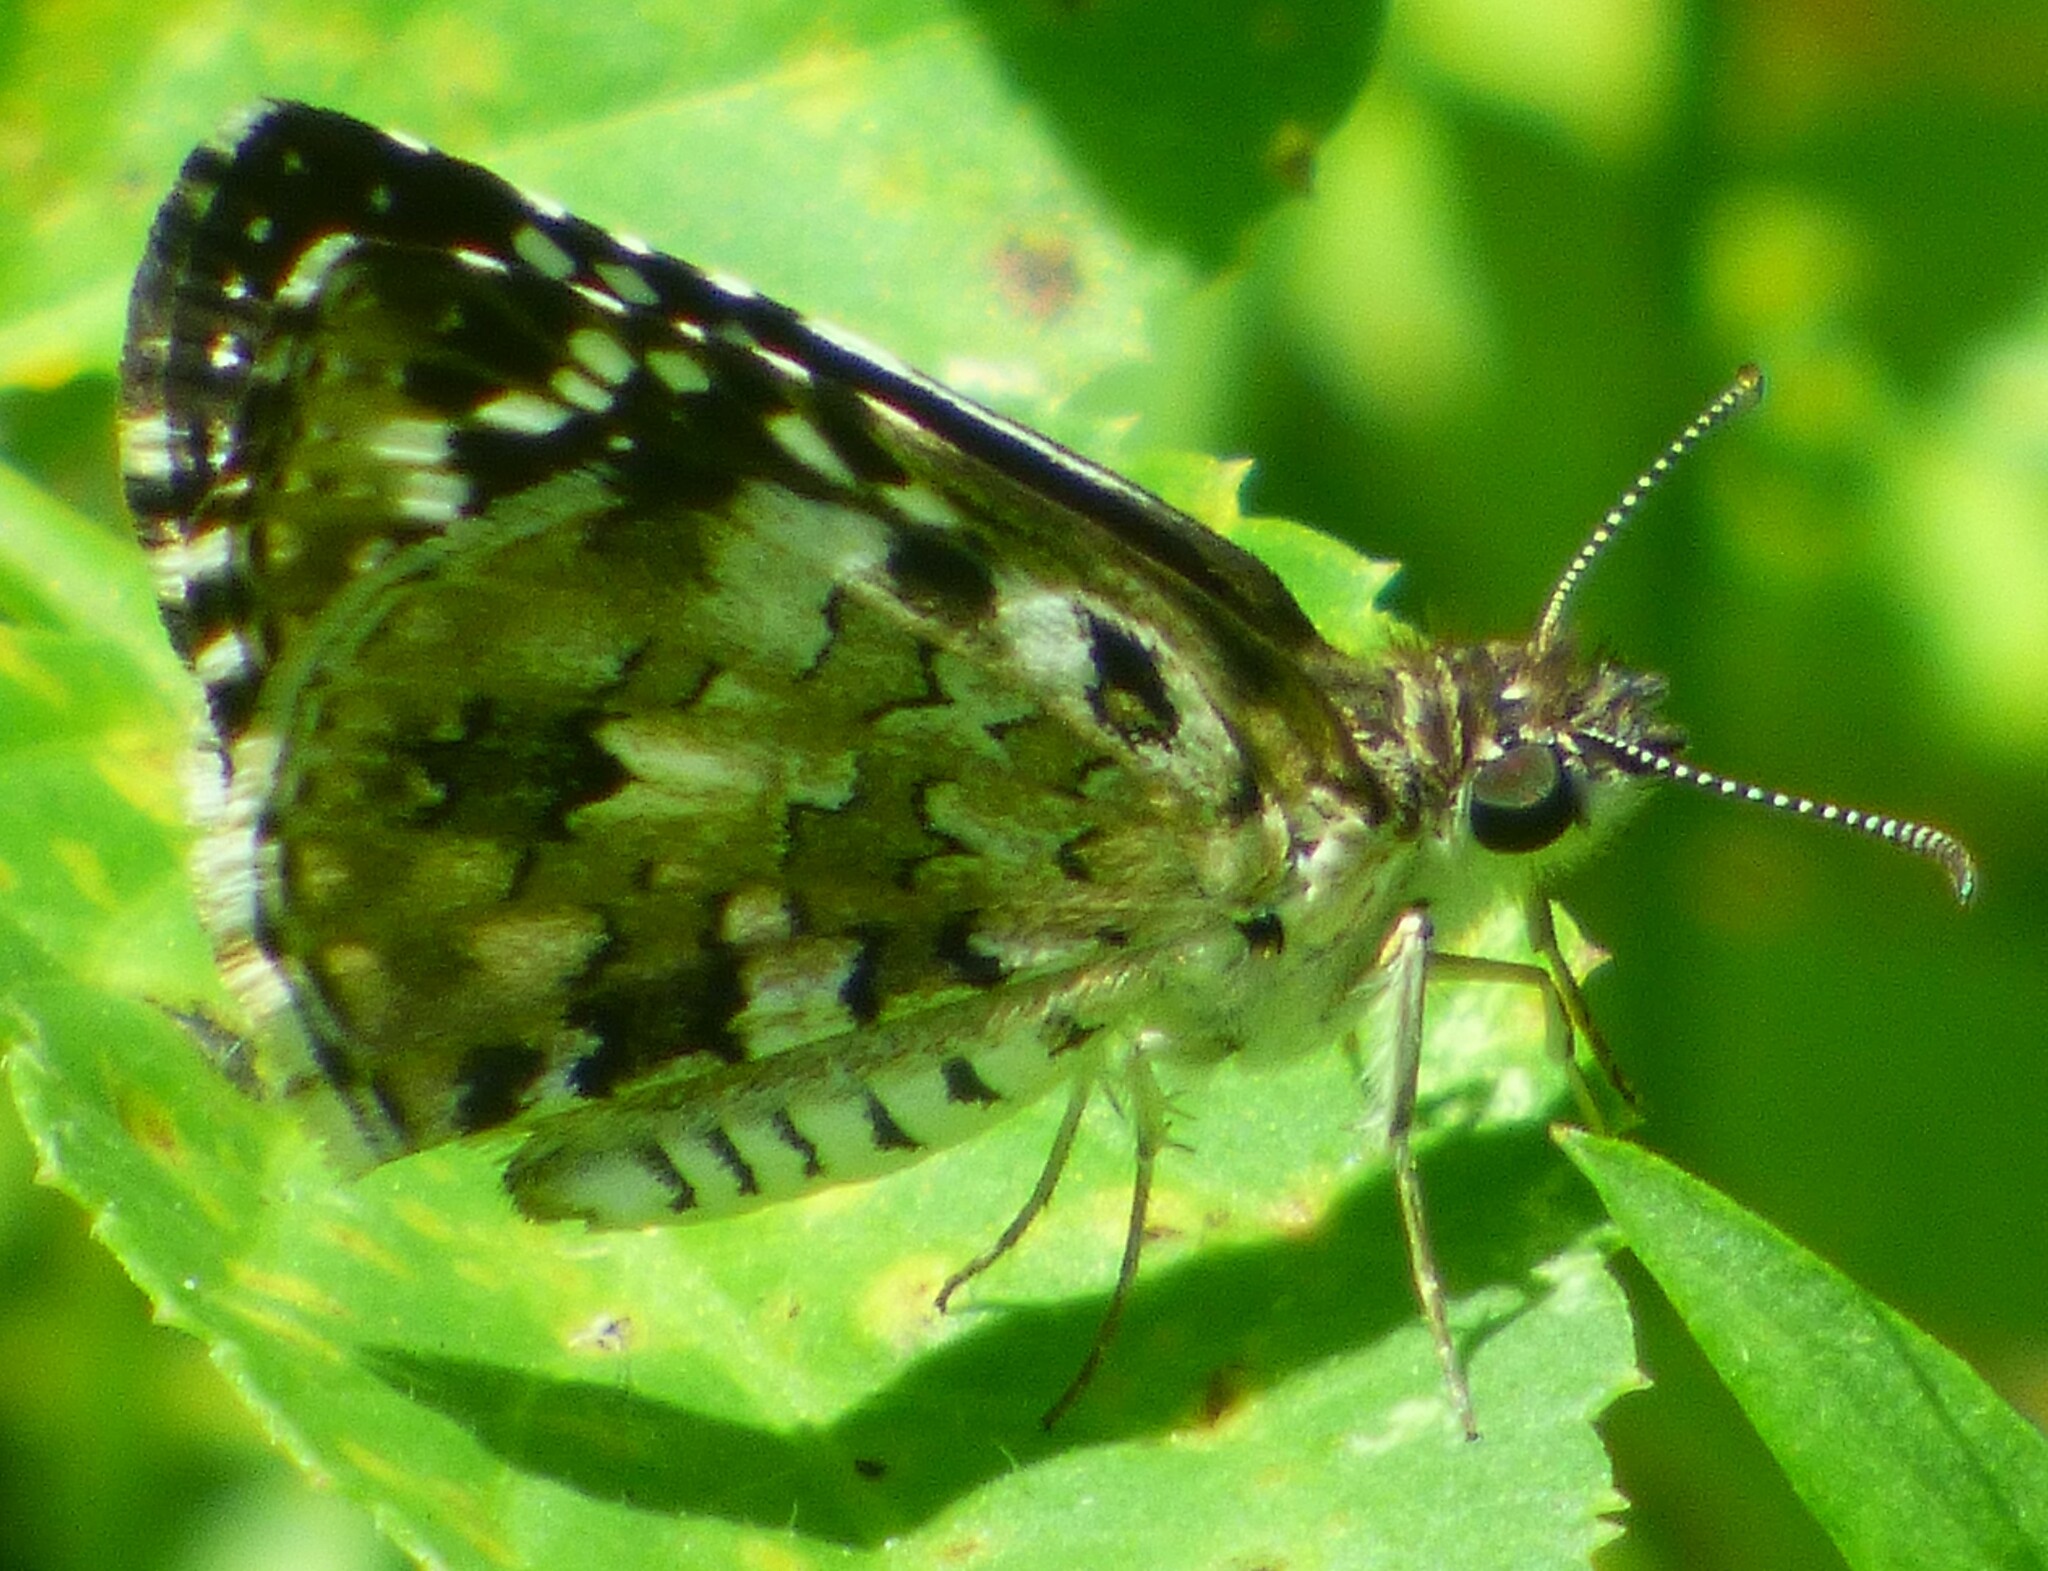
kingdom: Animalia
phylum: Arthropoda
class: Insecta
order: Lepidoptera
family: Hesperiidae
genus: Pyrgus
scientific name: Pyrgus oileus
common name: Tropical checkered-skipper
